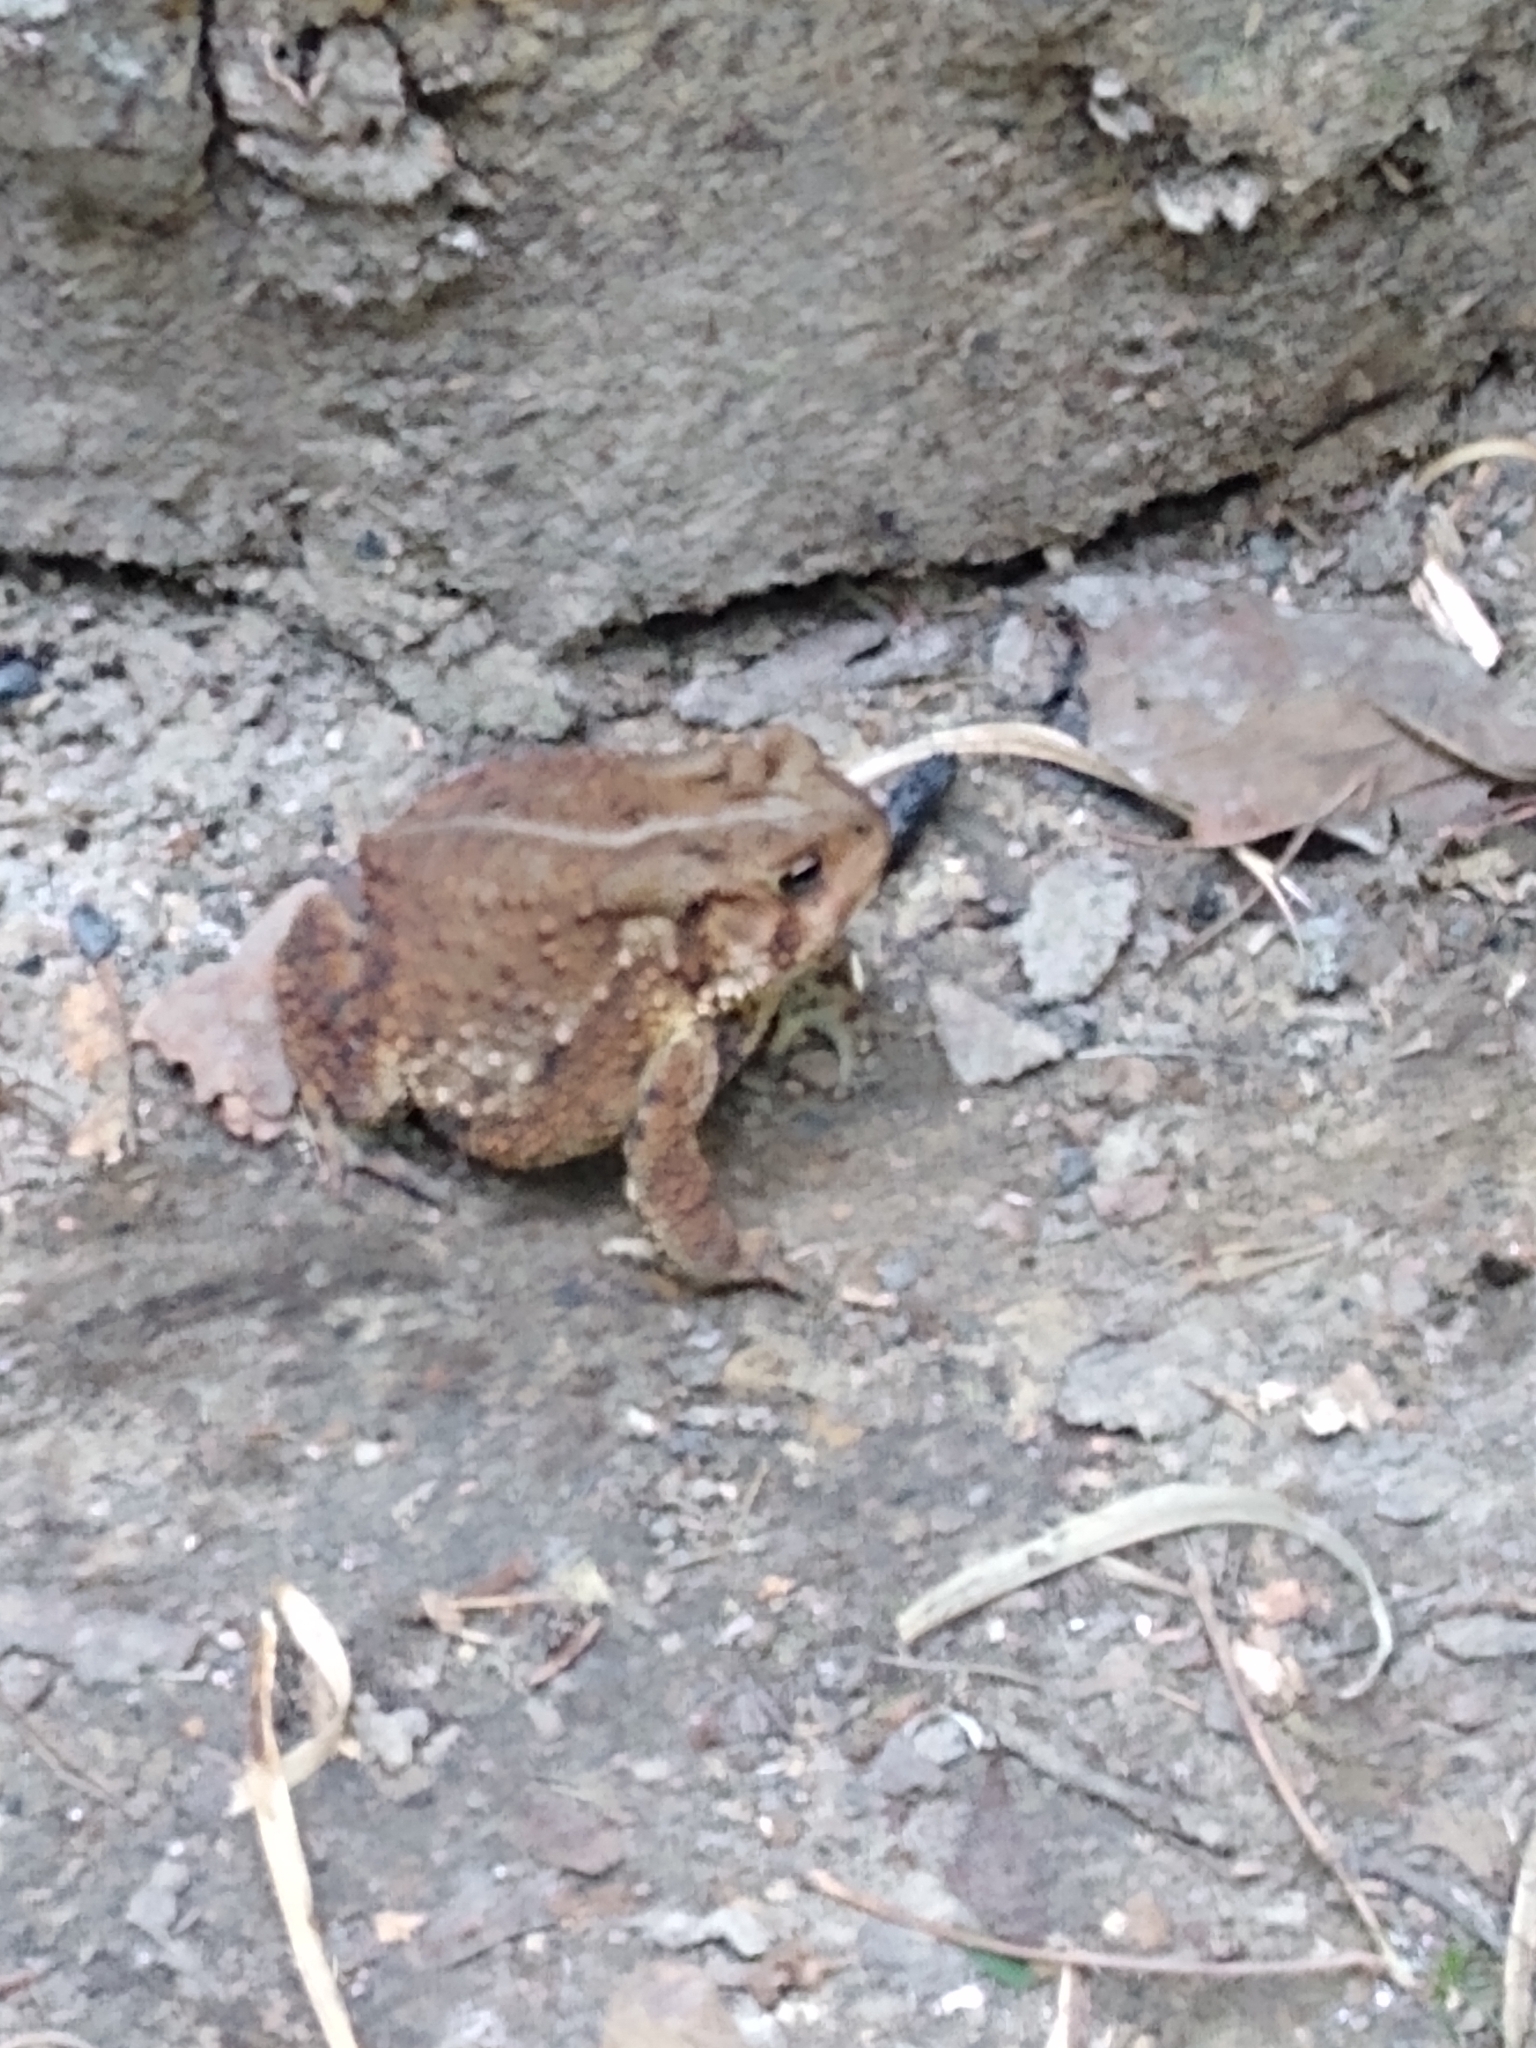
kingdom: Animalia
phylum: Chordata
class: Amphibia
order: Anura
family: Bufonidae
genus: Anaxyrus
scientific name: Anaxyrus americanus
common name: American toad
